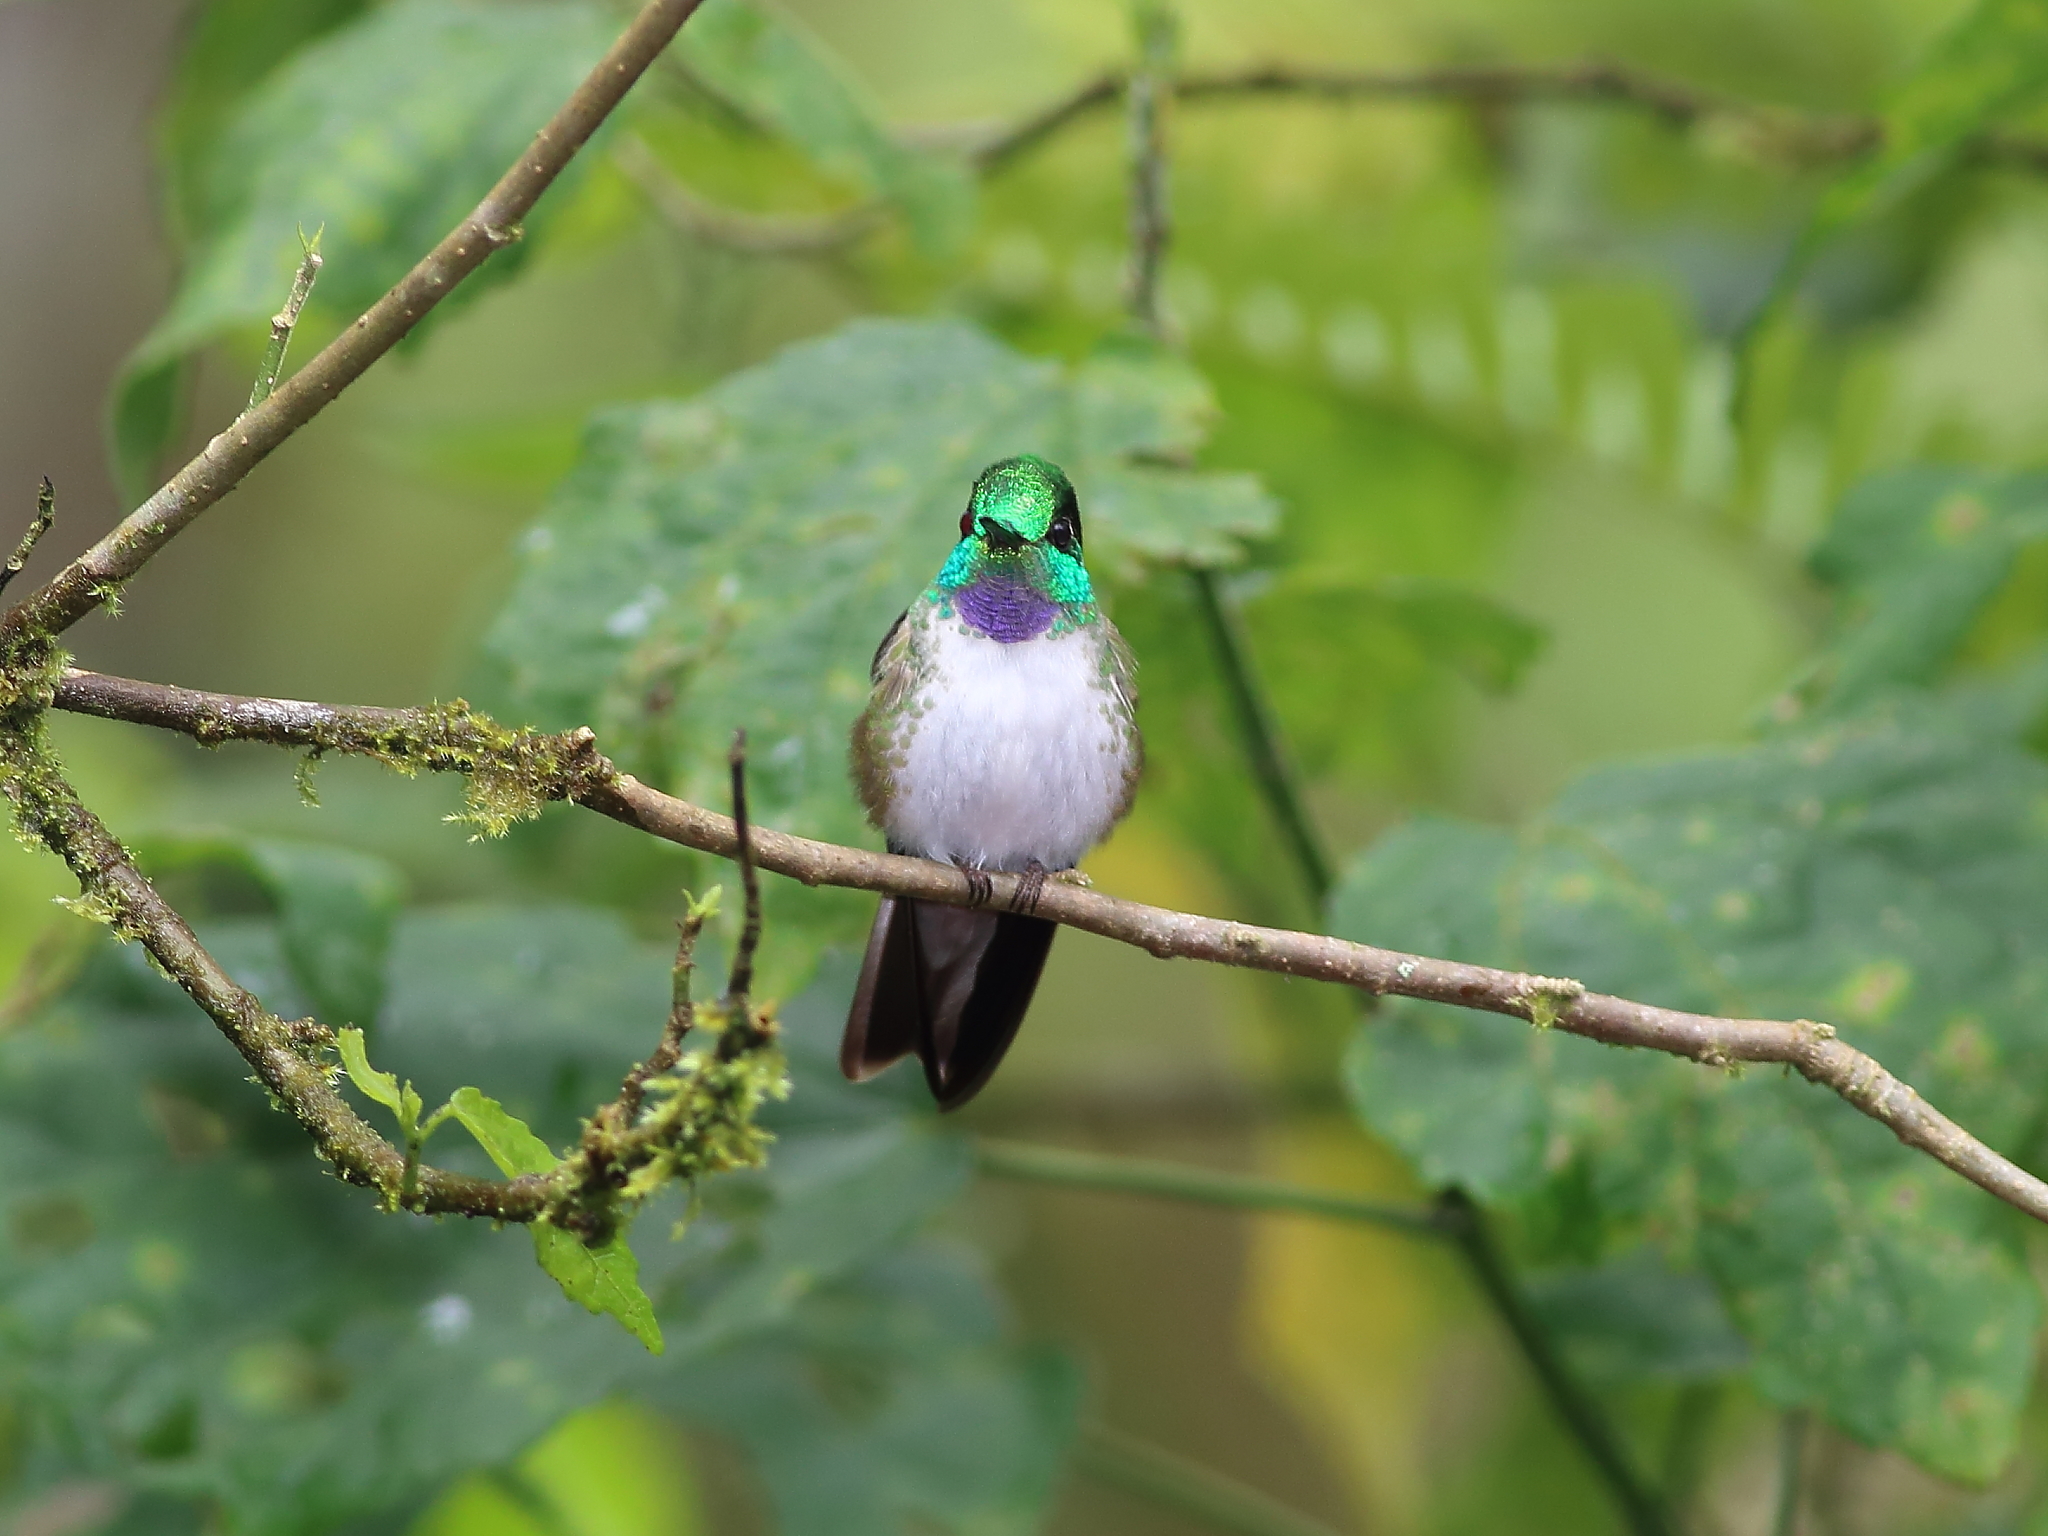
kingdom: Animalia
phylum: Chordata
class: Aves
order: Apodiformes
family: Trochilidae
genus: Lampornis
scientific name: Lampornis hemileucus
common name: White-bellied mountain-gem
